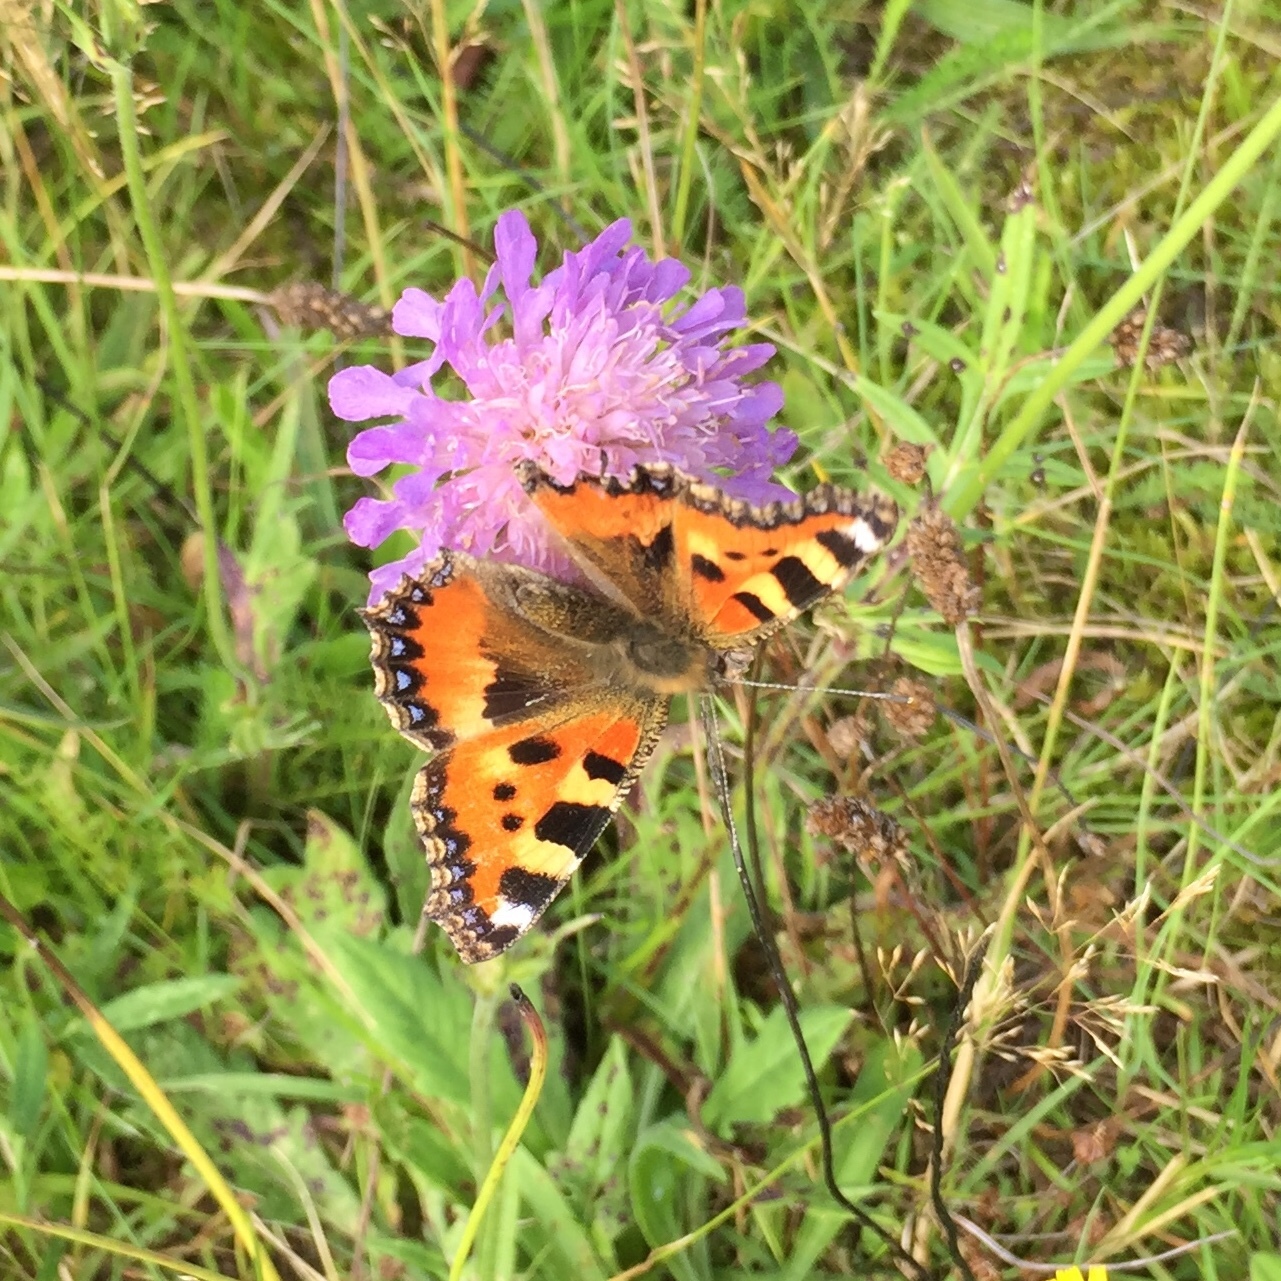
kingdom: Animalia
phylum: Arthropoda
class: Insecta
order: Lepidoptera
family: Nymphalidae
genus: Aglais
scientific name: Aglais urticae
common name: Small tortoiseshell
